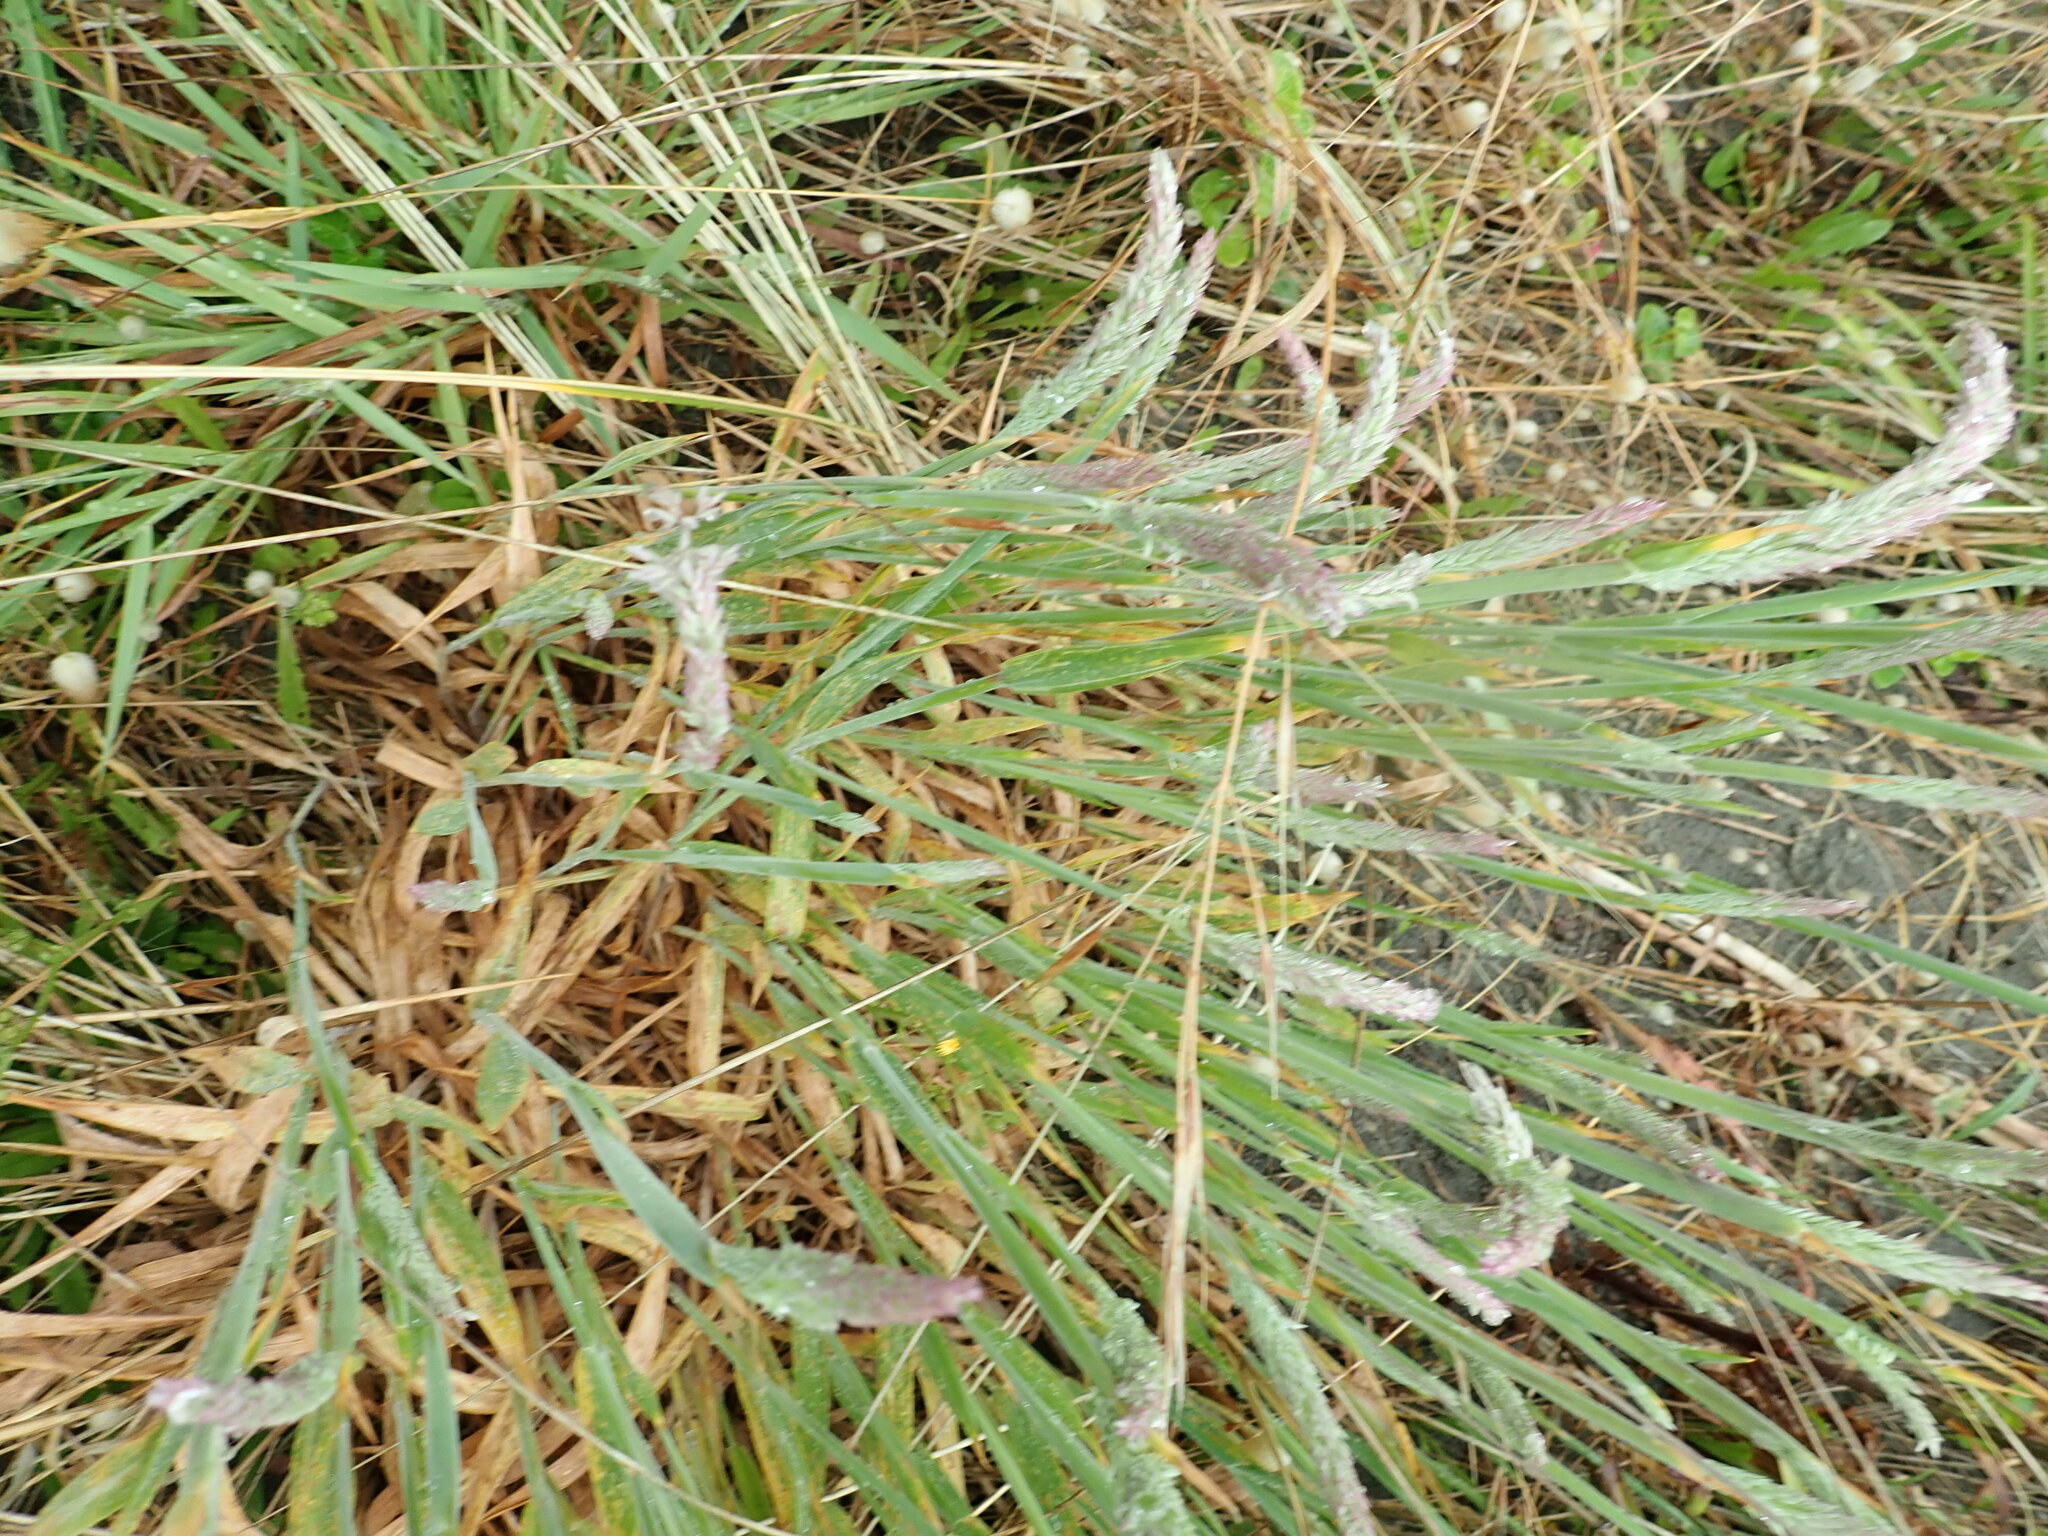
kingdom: Plantae
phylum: Tracheophyta
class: Liliopsida
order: Poales
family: Poaceae
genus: Holcus
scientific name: Holcus lanatus
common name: Yorkshire-fog
